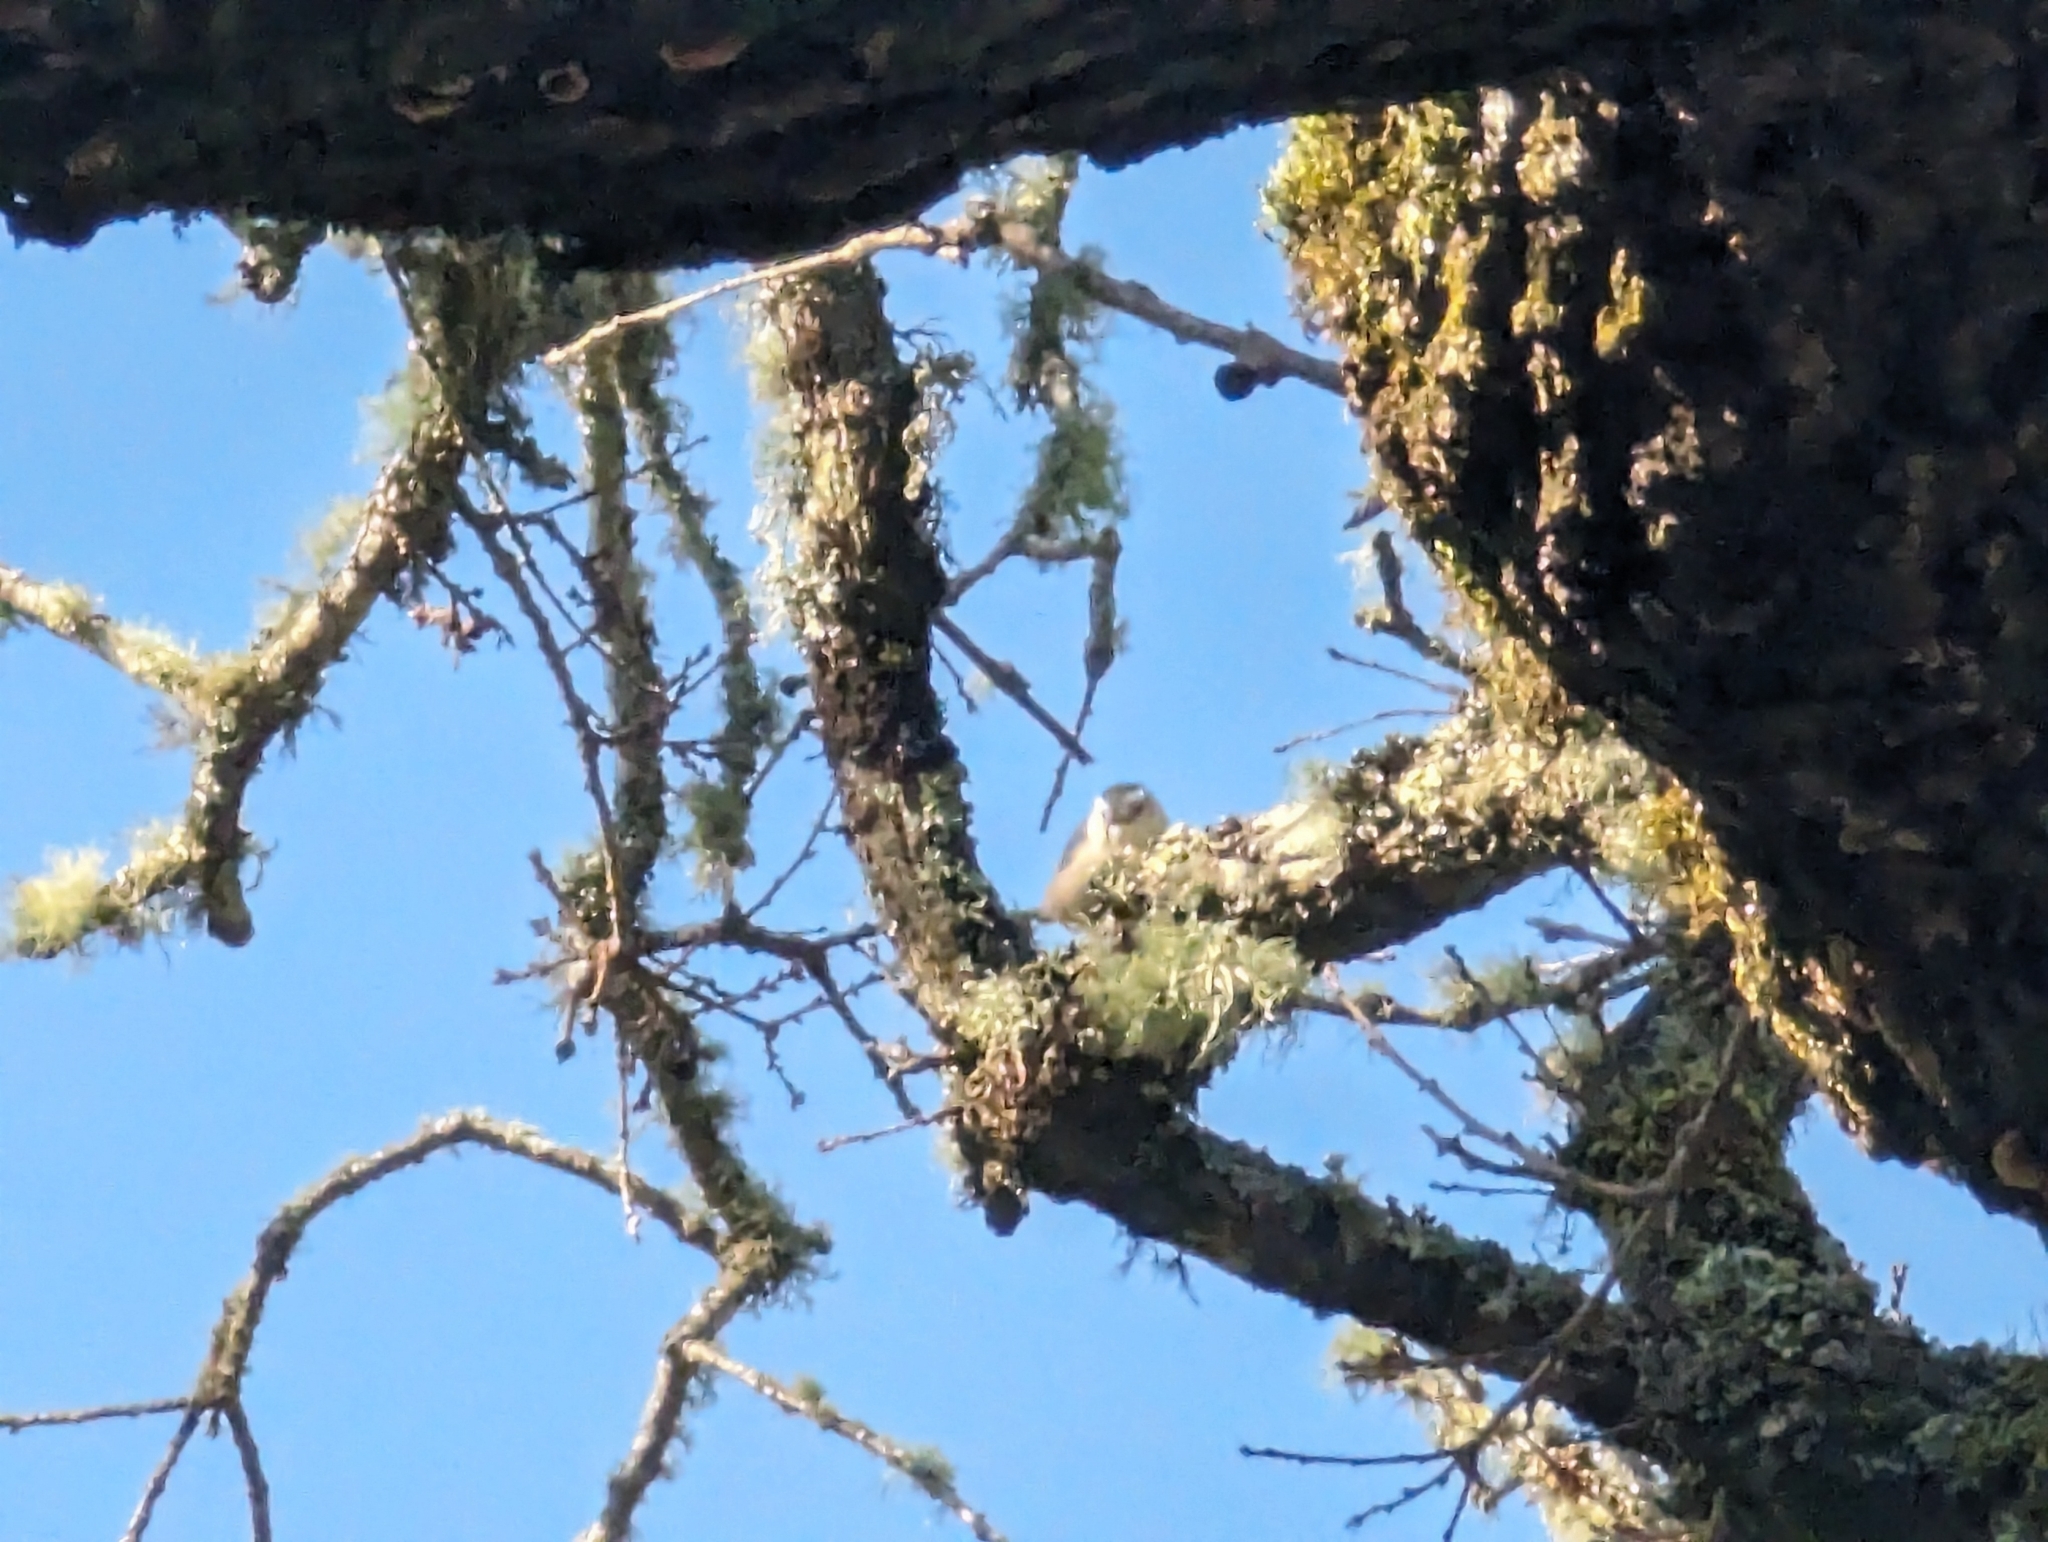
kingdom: Animalia
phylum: Chordata
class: Aves
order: Passeriformes
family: Sittidae
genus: Sitta
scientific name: Sitta carolinensis
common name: White-breasted nuthatch
